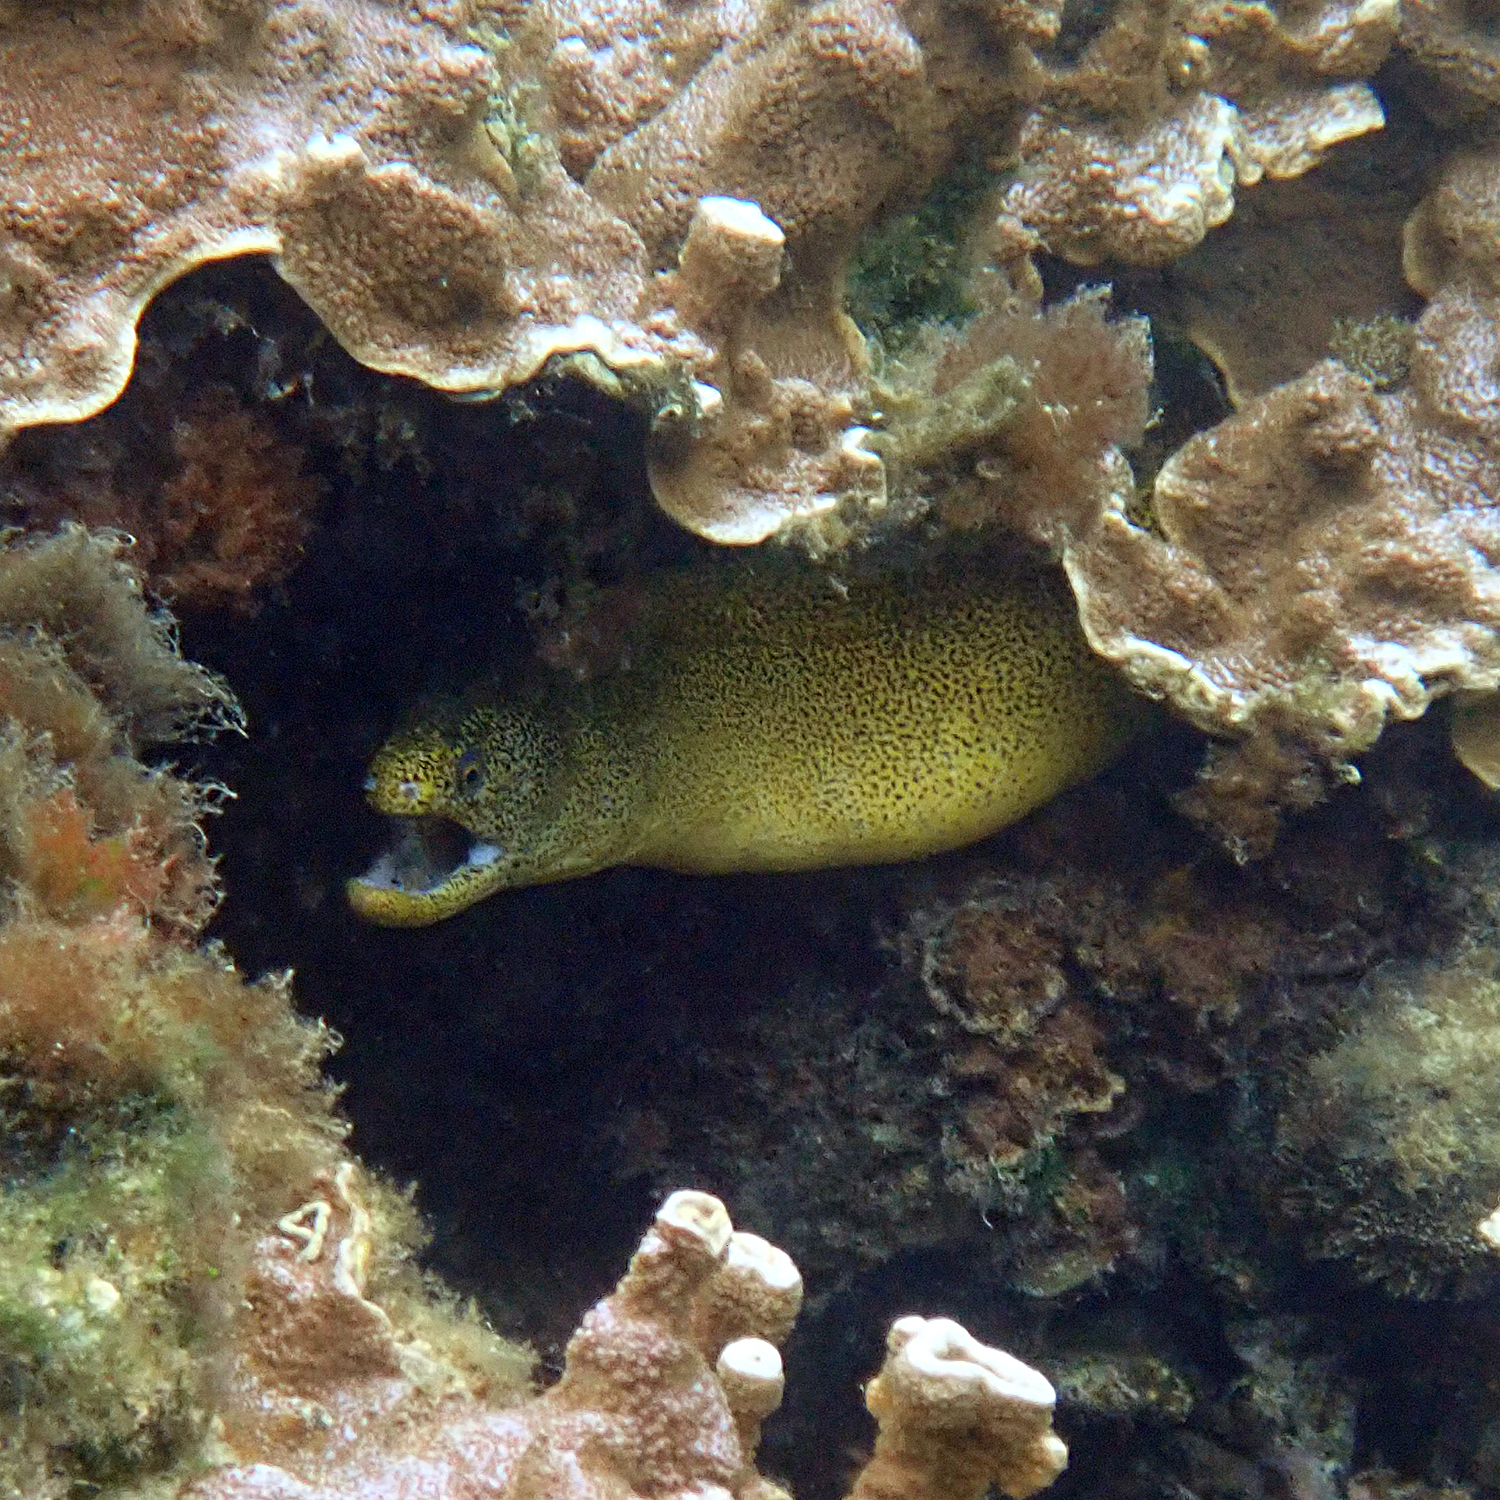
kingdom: Animalia
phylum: Chordata
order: Anguilliformes
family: Muraenidae
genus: Gymnothorax
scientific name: Gymnothorax eurostus
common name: Stout moray
